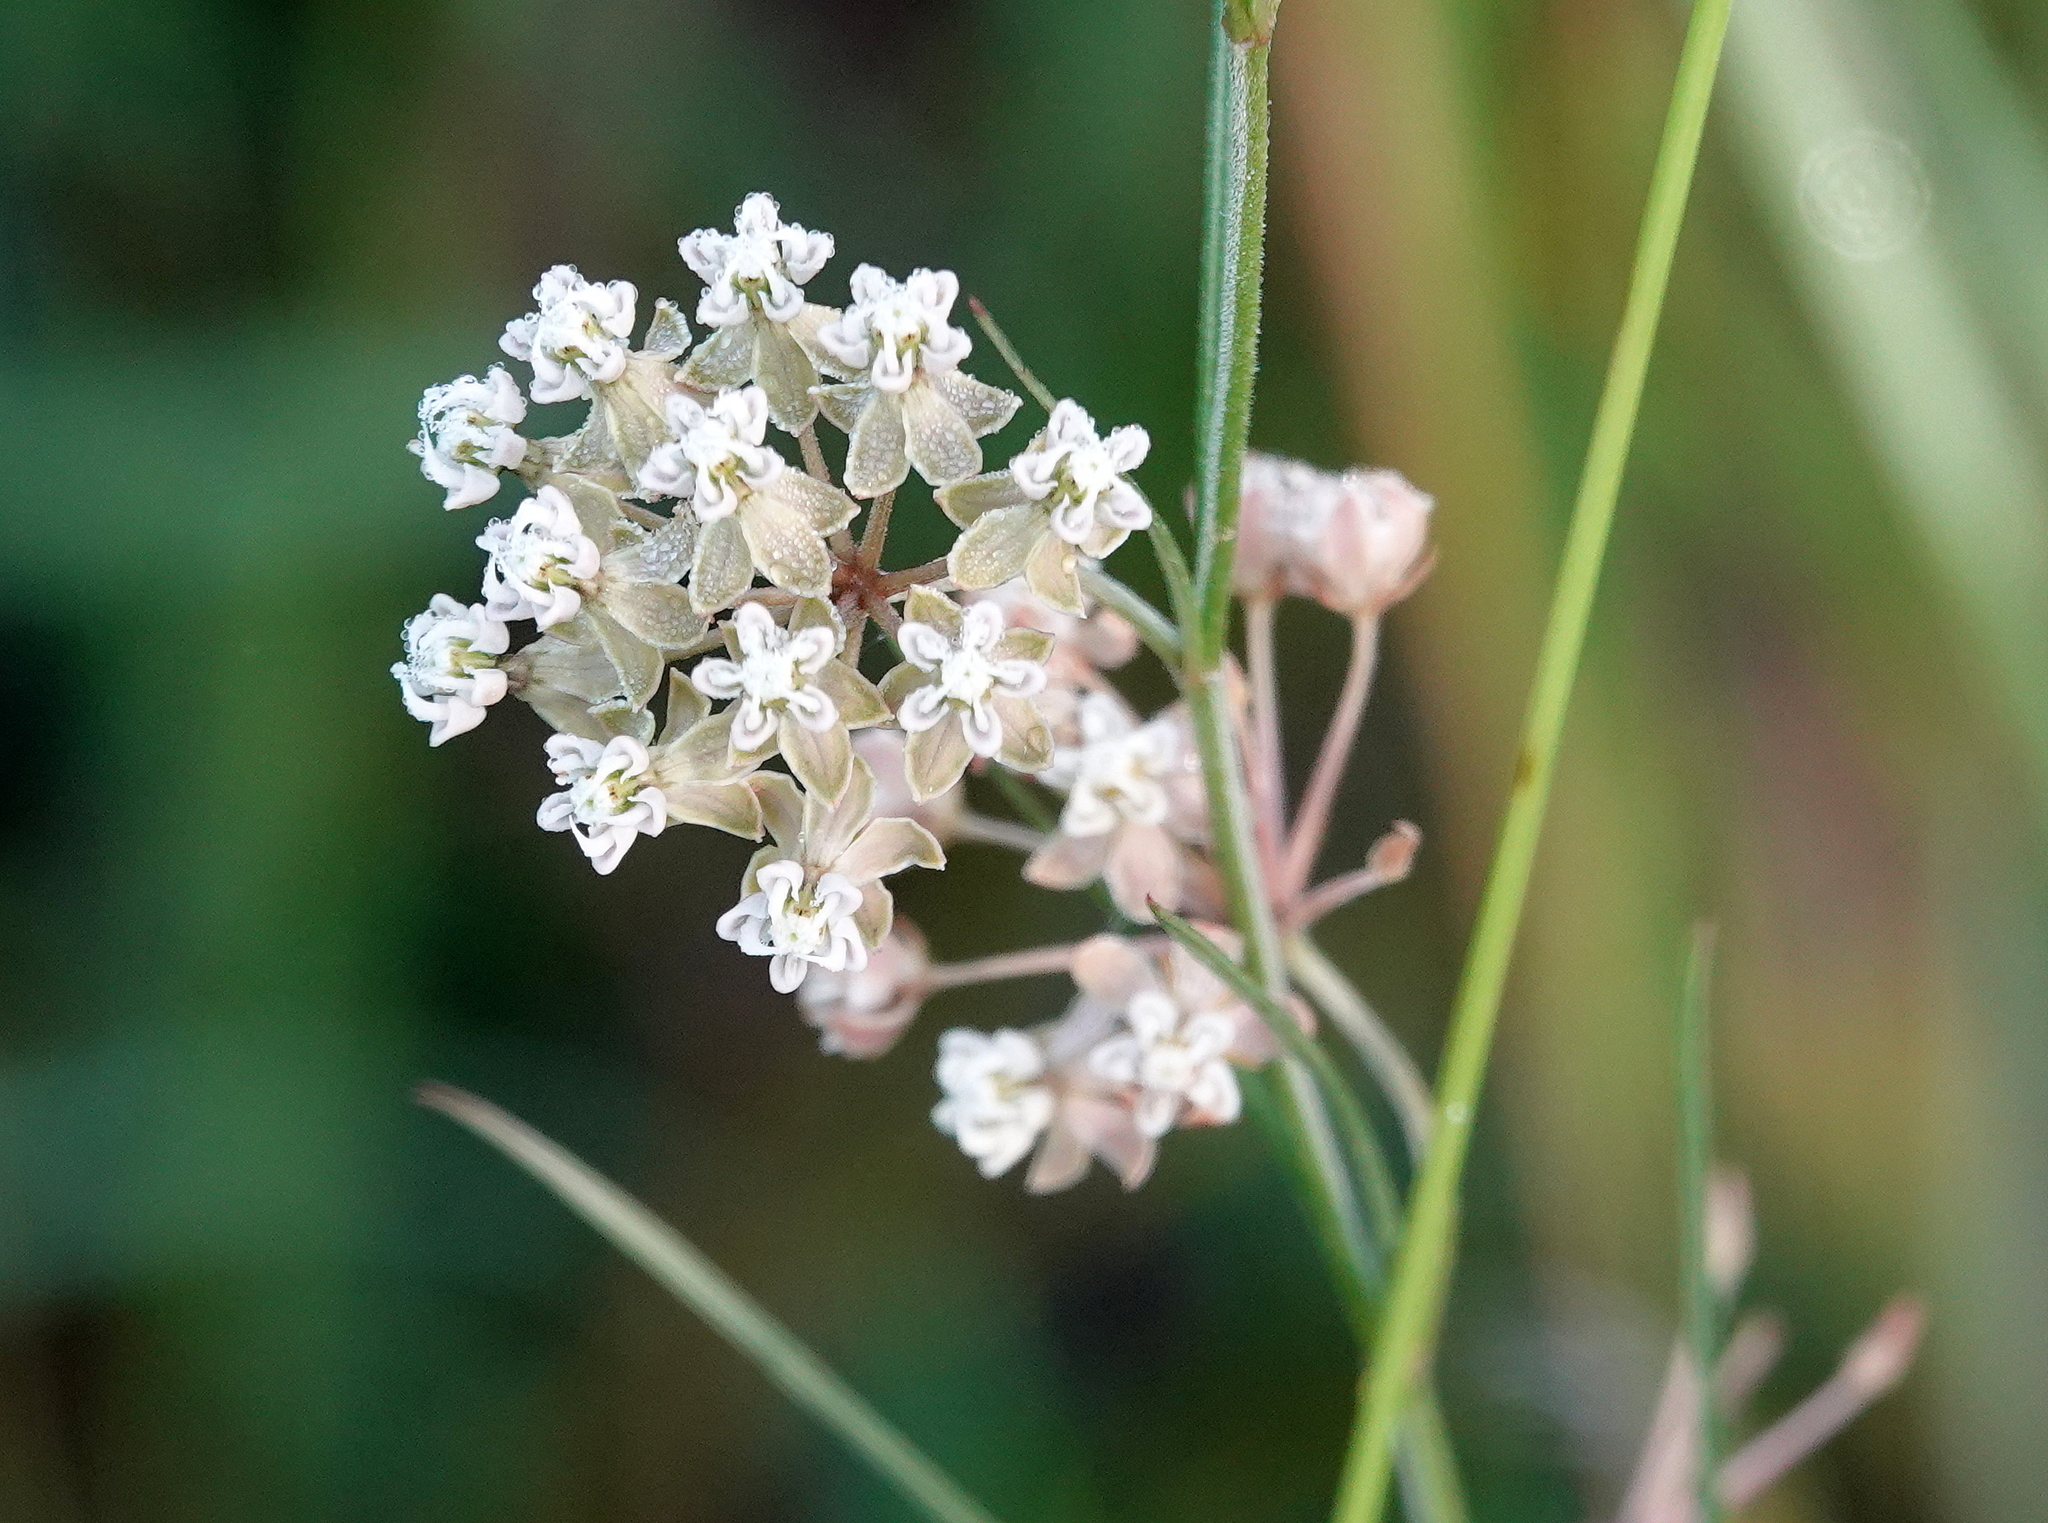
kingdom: Plantae
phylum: Tracheophyta
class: Magnoliopsida
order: Gentianales
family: Apocynaceae
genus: Asclepias
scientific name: Asclepias verticillata
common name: Eastern whorled milkweed
